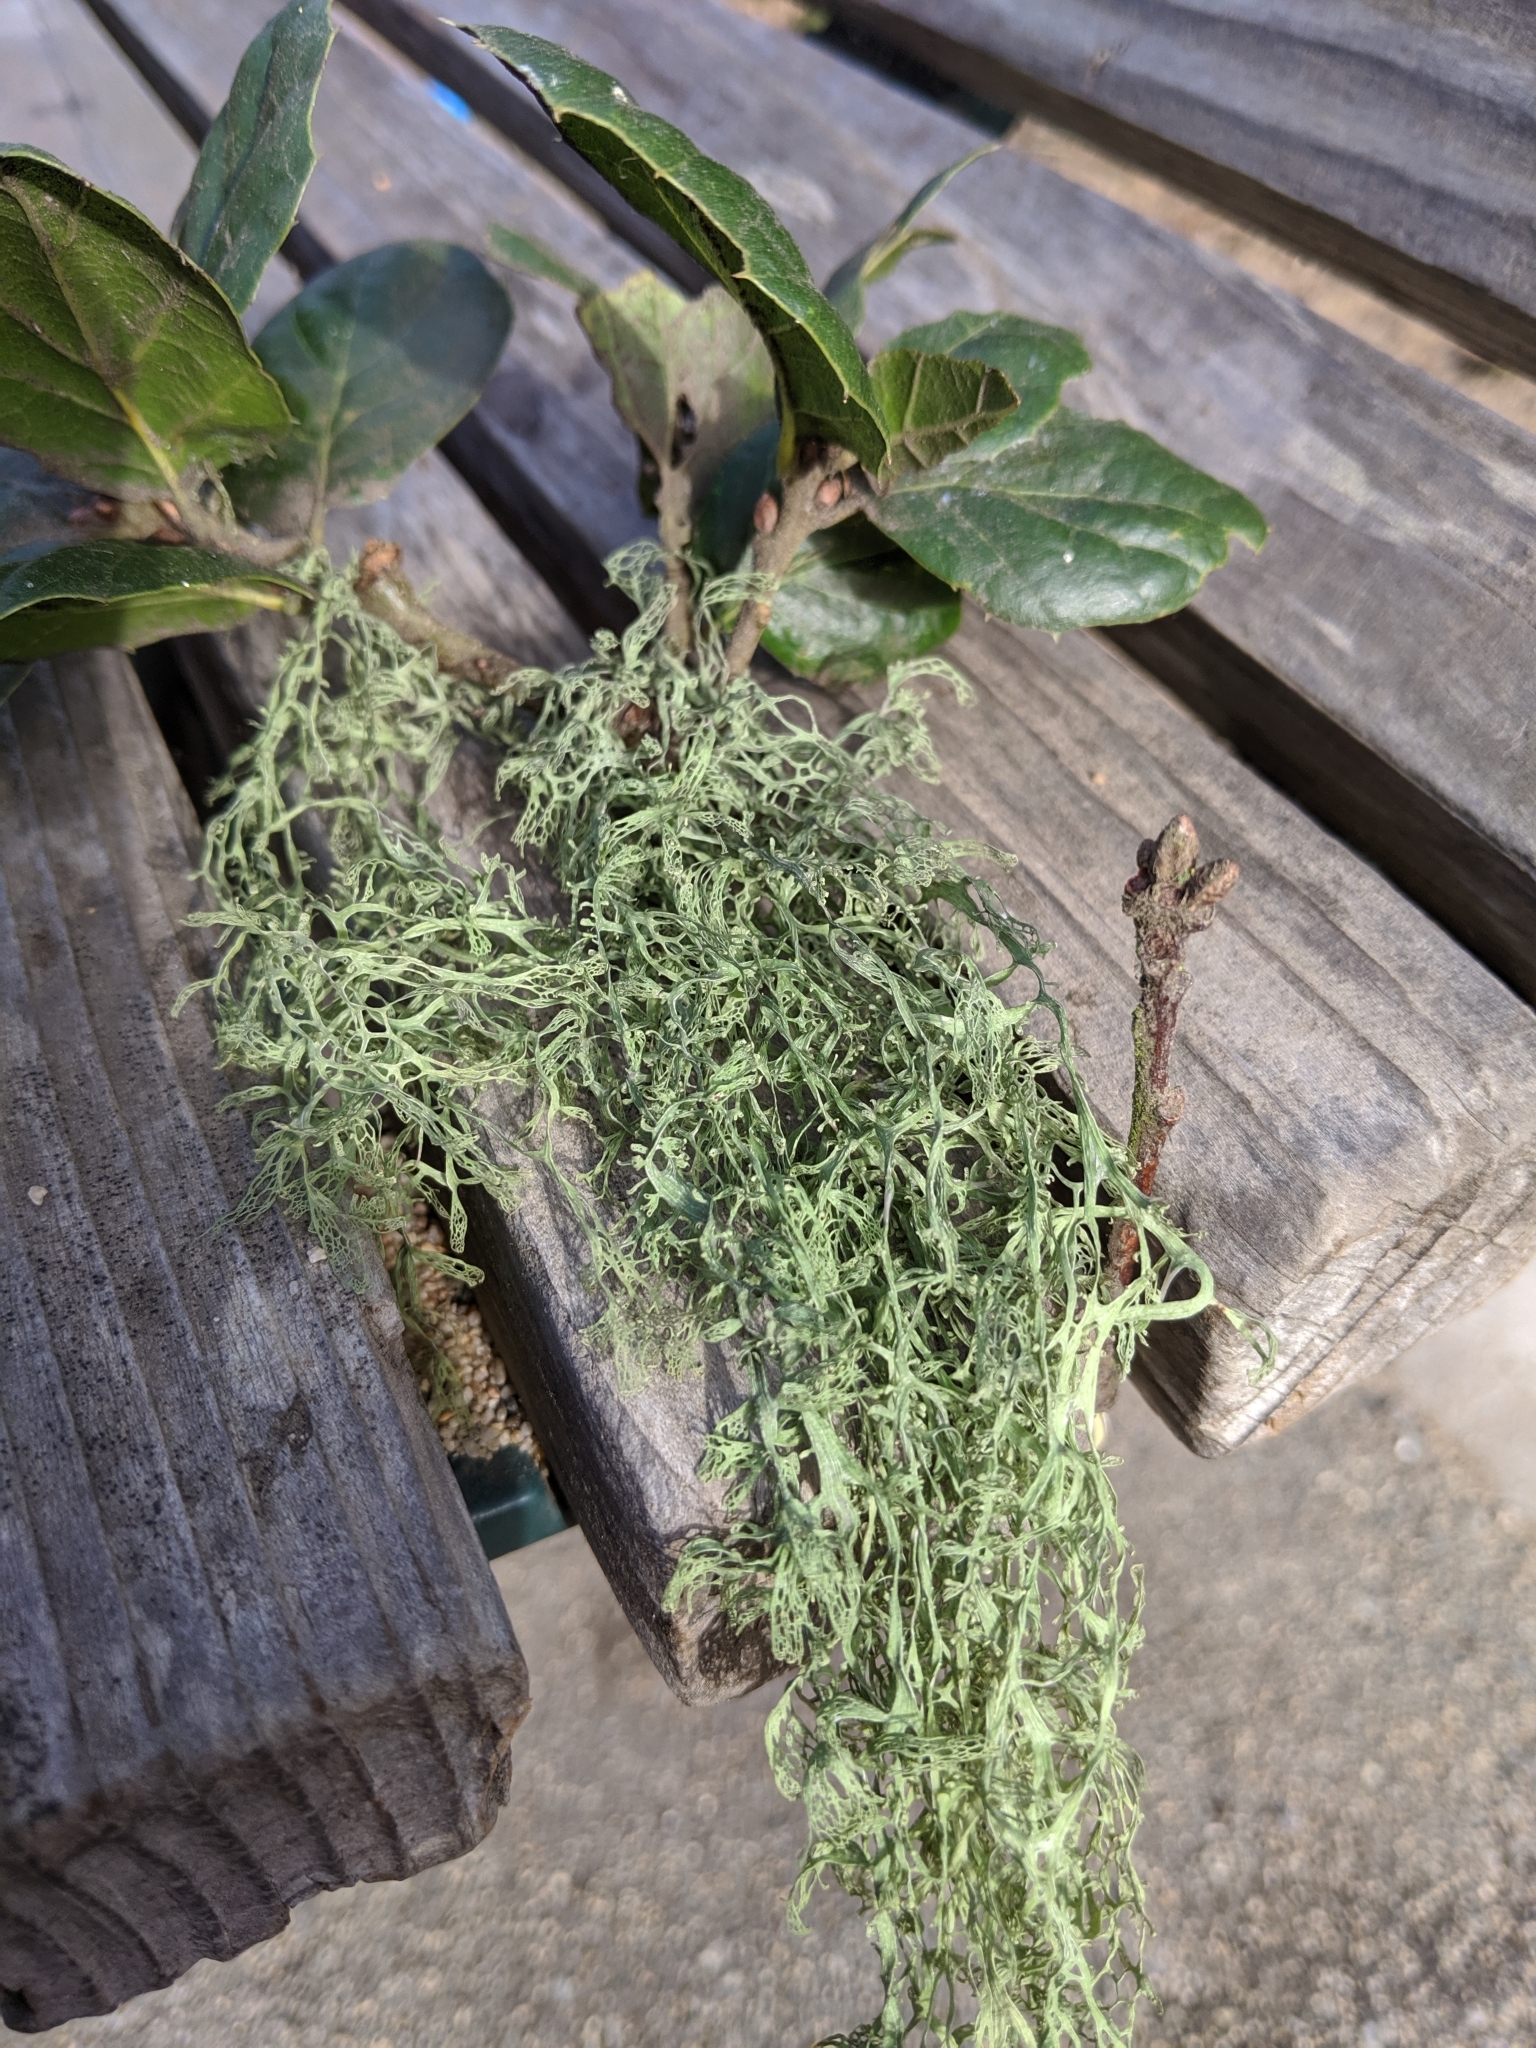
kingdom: Fungi
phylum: Ascomycota
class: Lecanoromycetes
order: Lecanorales
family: Ramalinaceae
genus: Ramalina
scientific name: Ramalina menziesii
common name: Lace lichen
